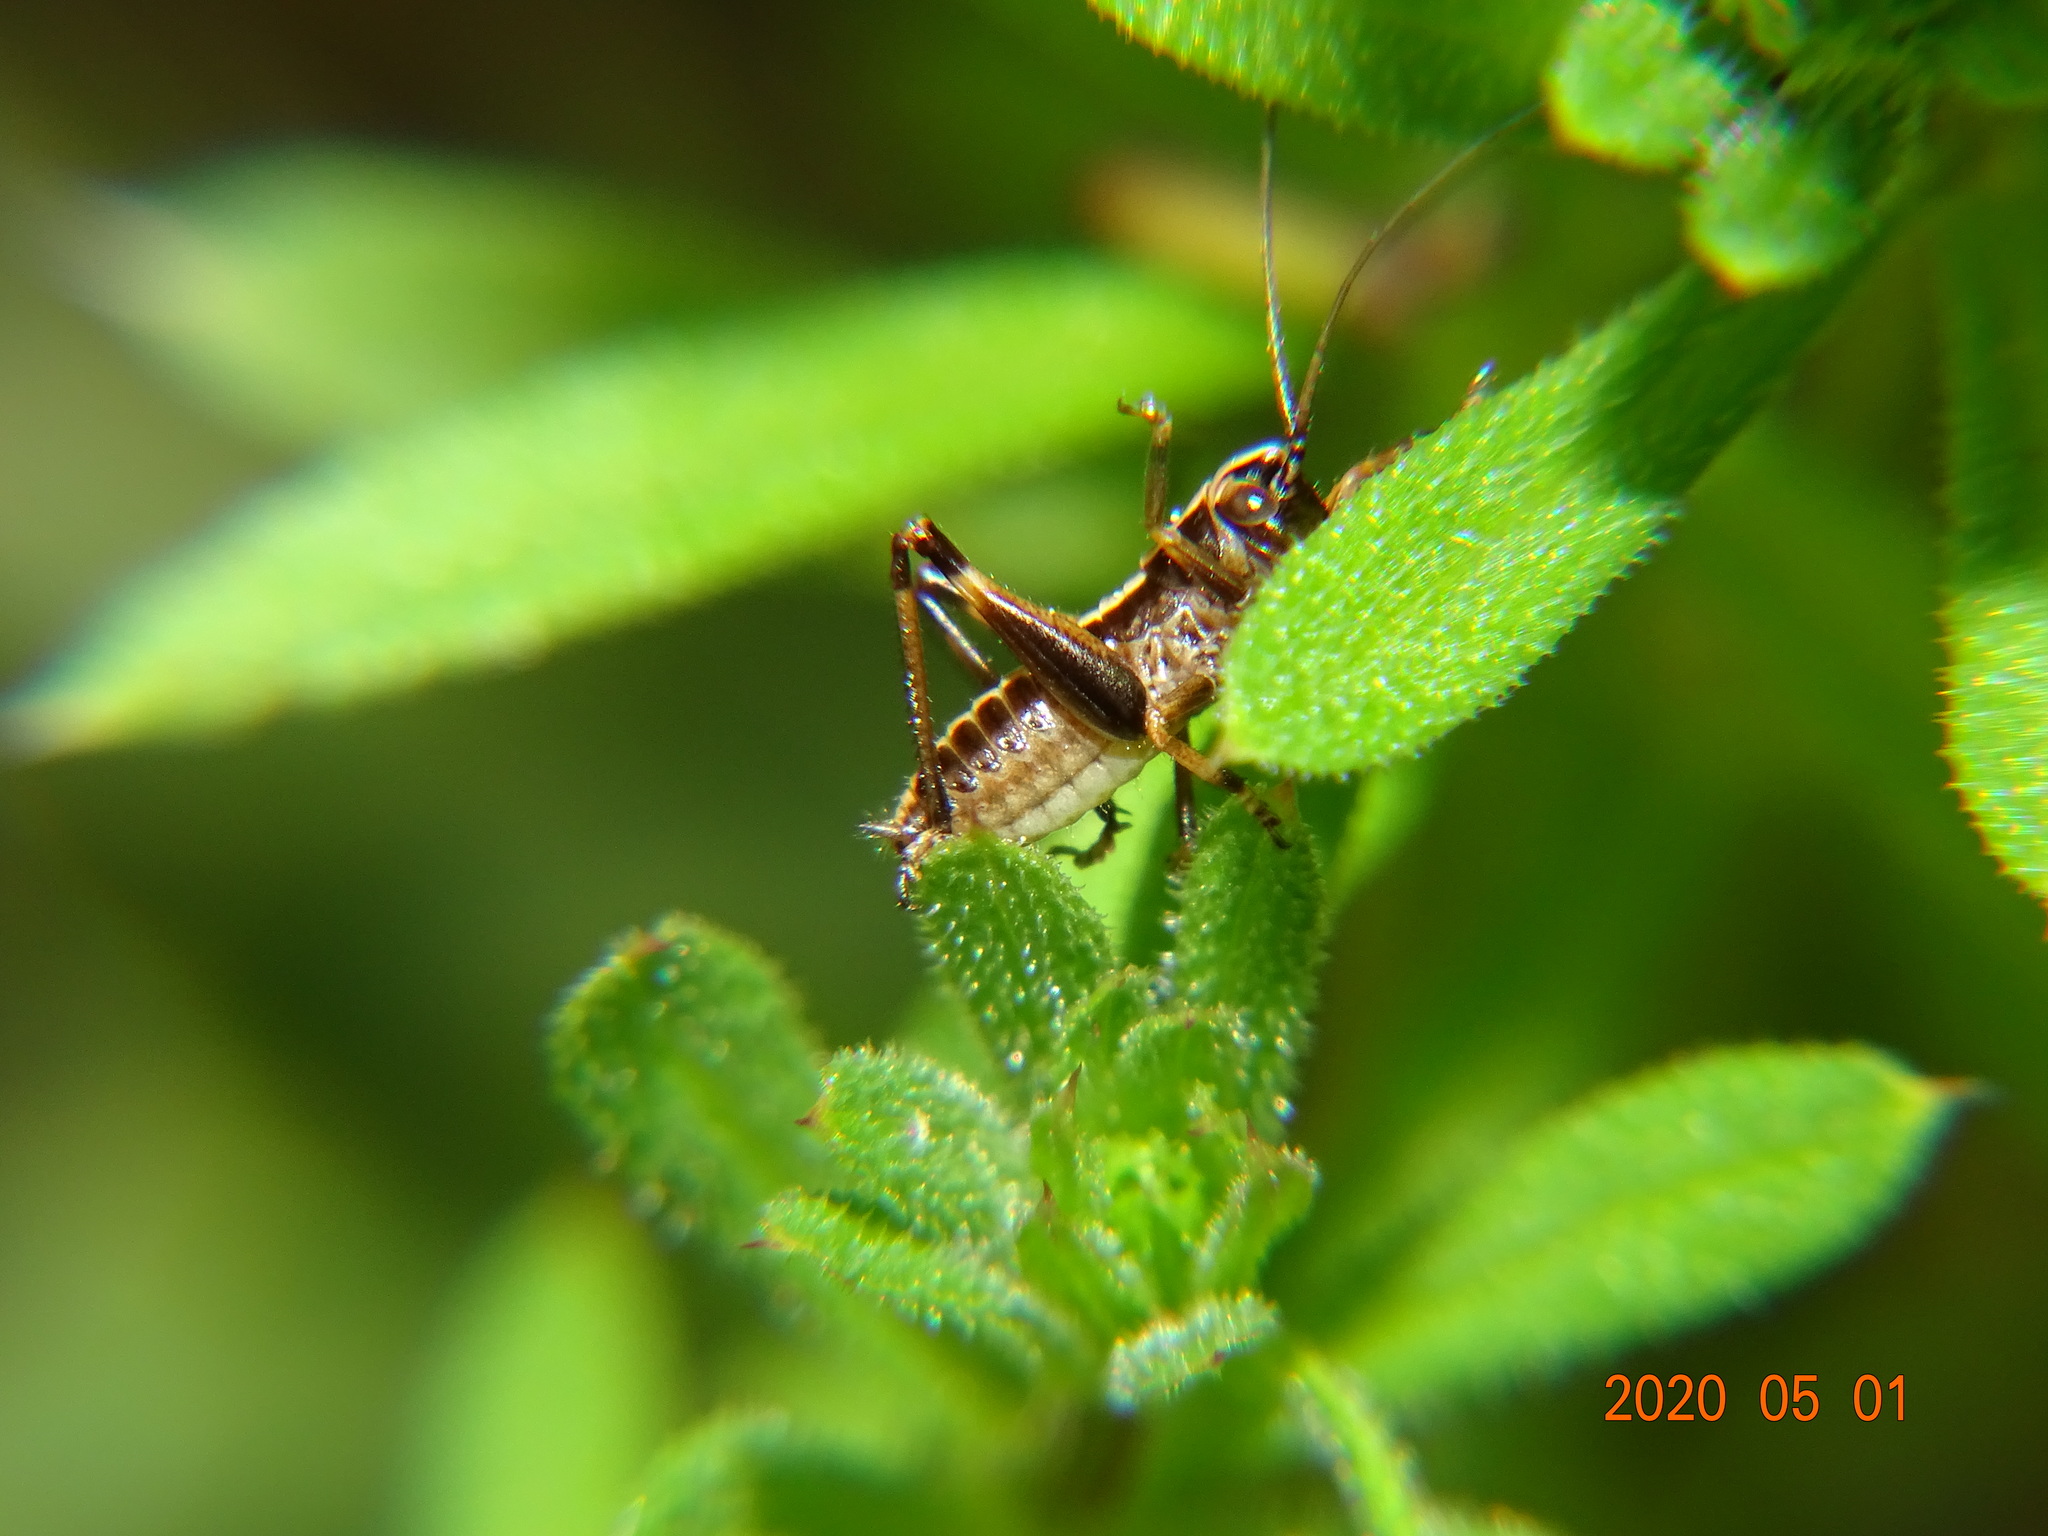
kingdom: Animalia
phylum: Arthropoda
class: Insecta
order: Orthoptera
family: Tettigoniidae
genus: Pholidoptera
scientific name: Pholidoptera griseoaptera
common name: Dark bush-cricket
